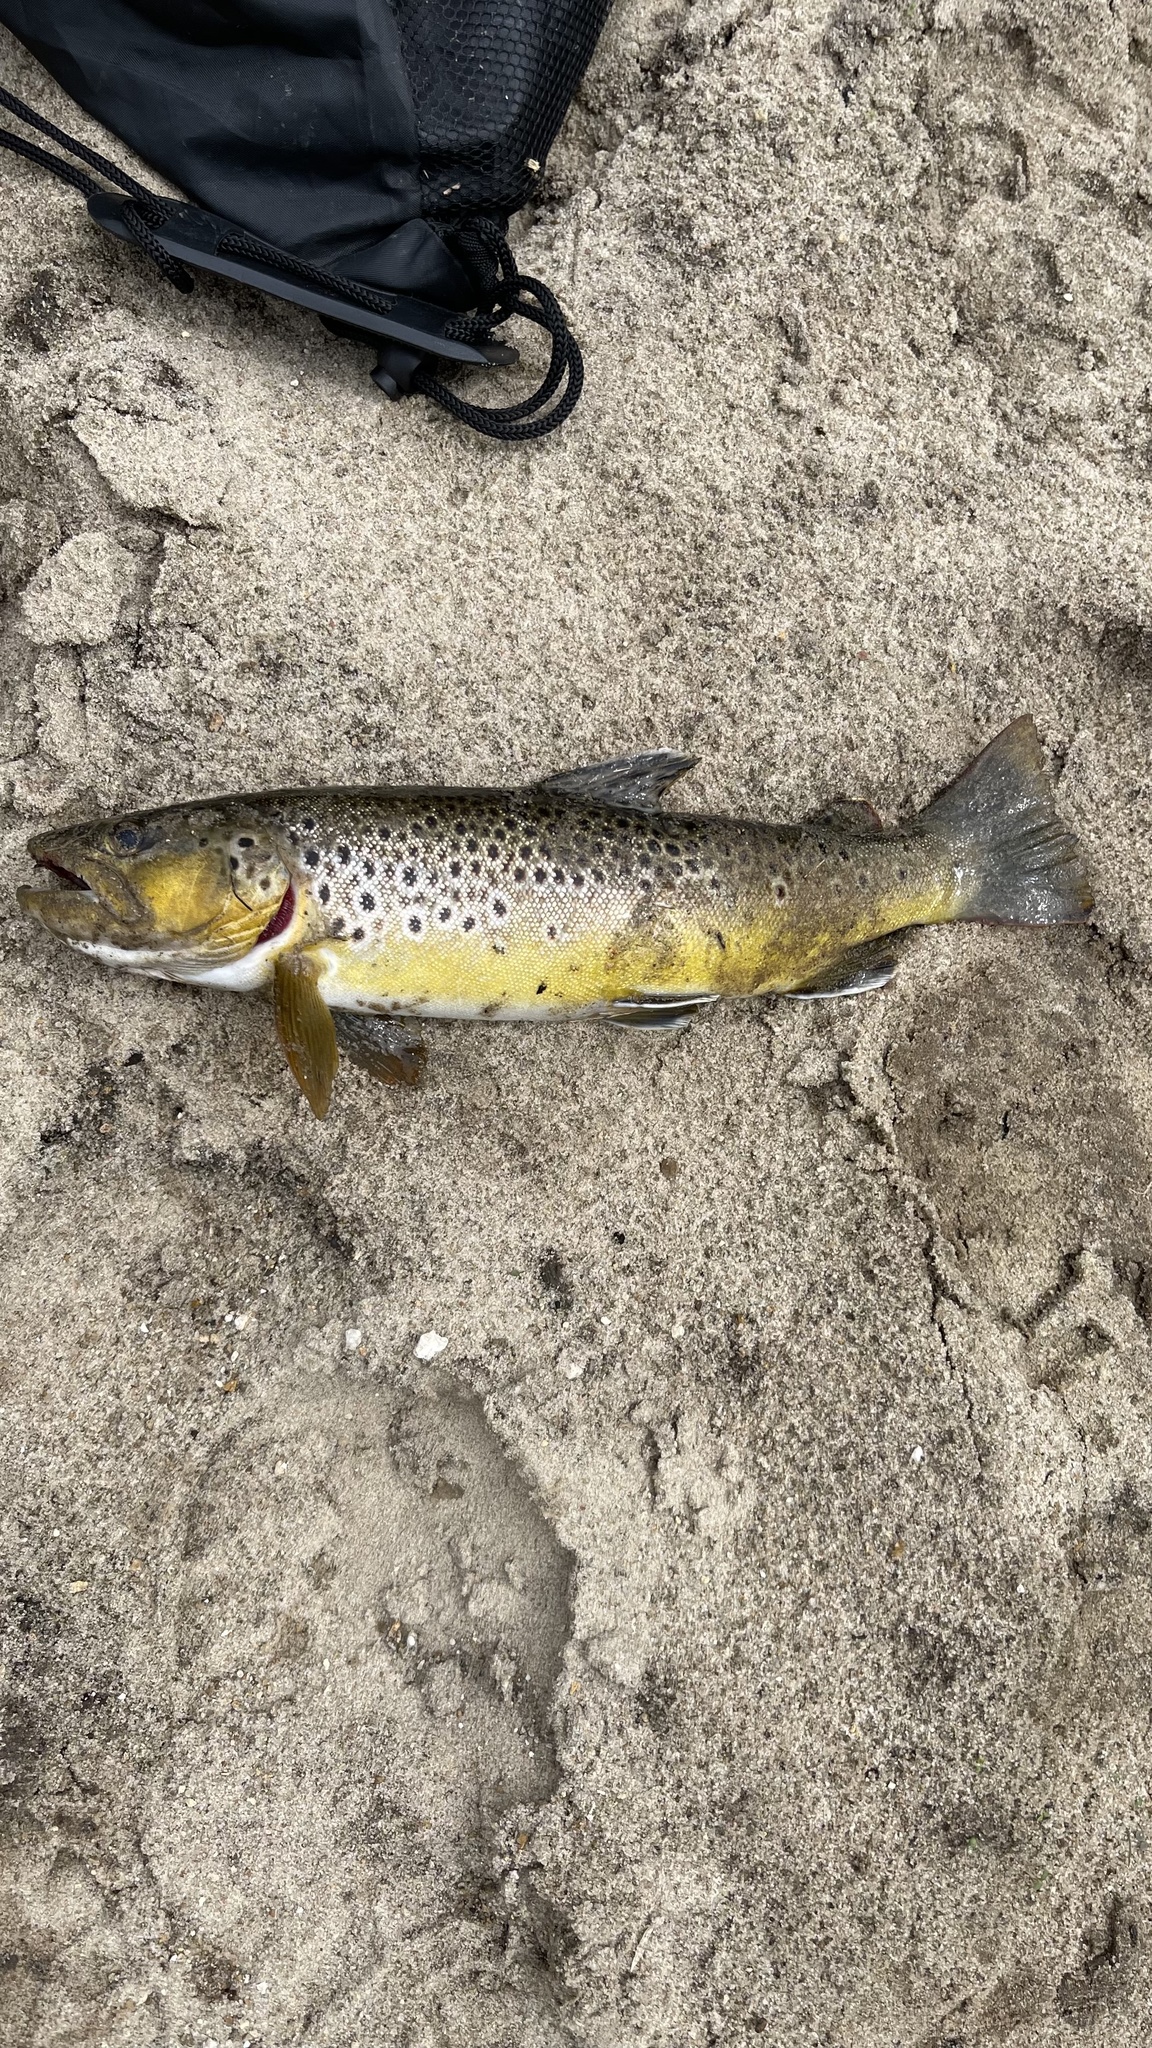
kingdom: Animalia
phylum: Chordata
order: Salmoniformes
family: Salmonidae
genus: Salmo
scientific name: Salmo trutta
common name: Brown trout
